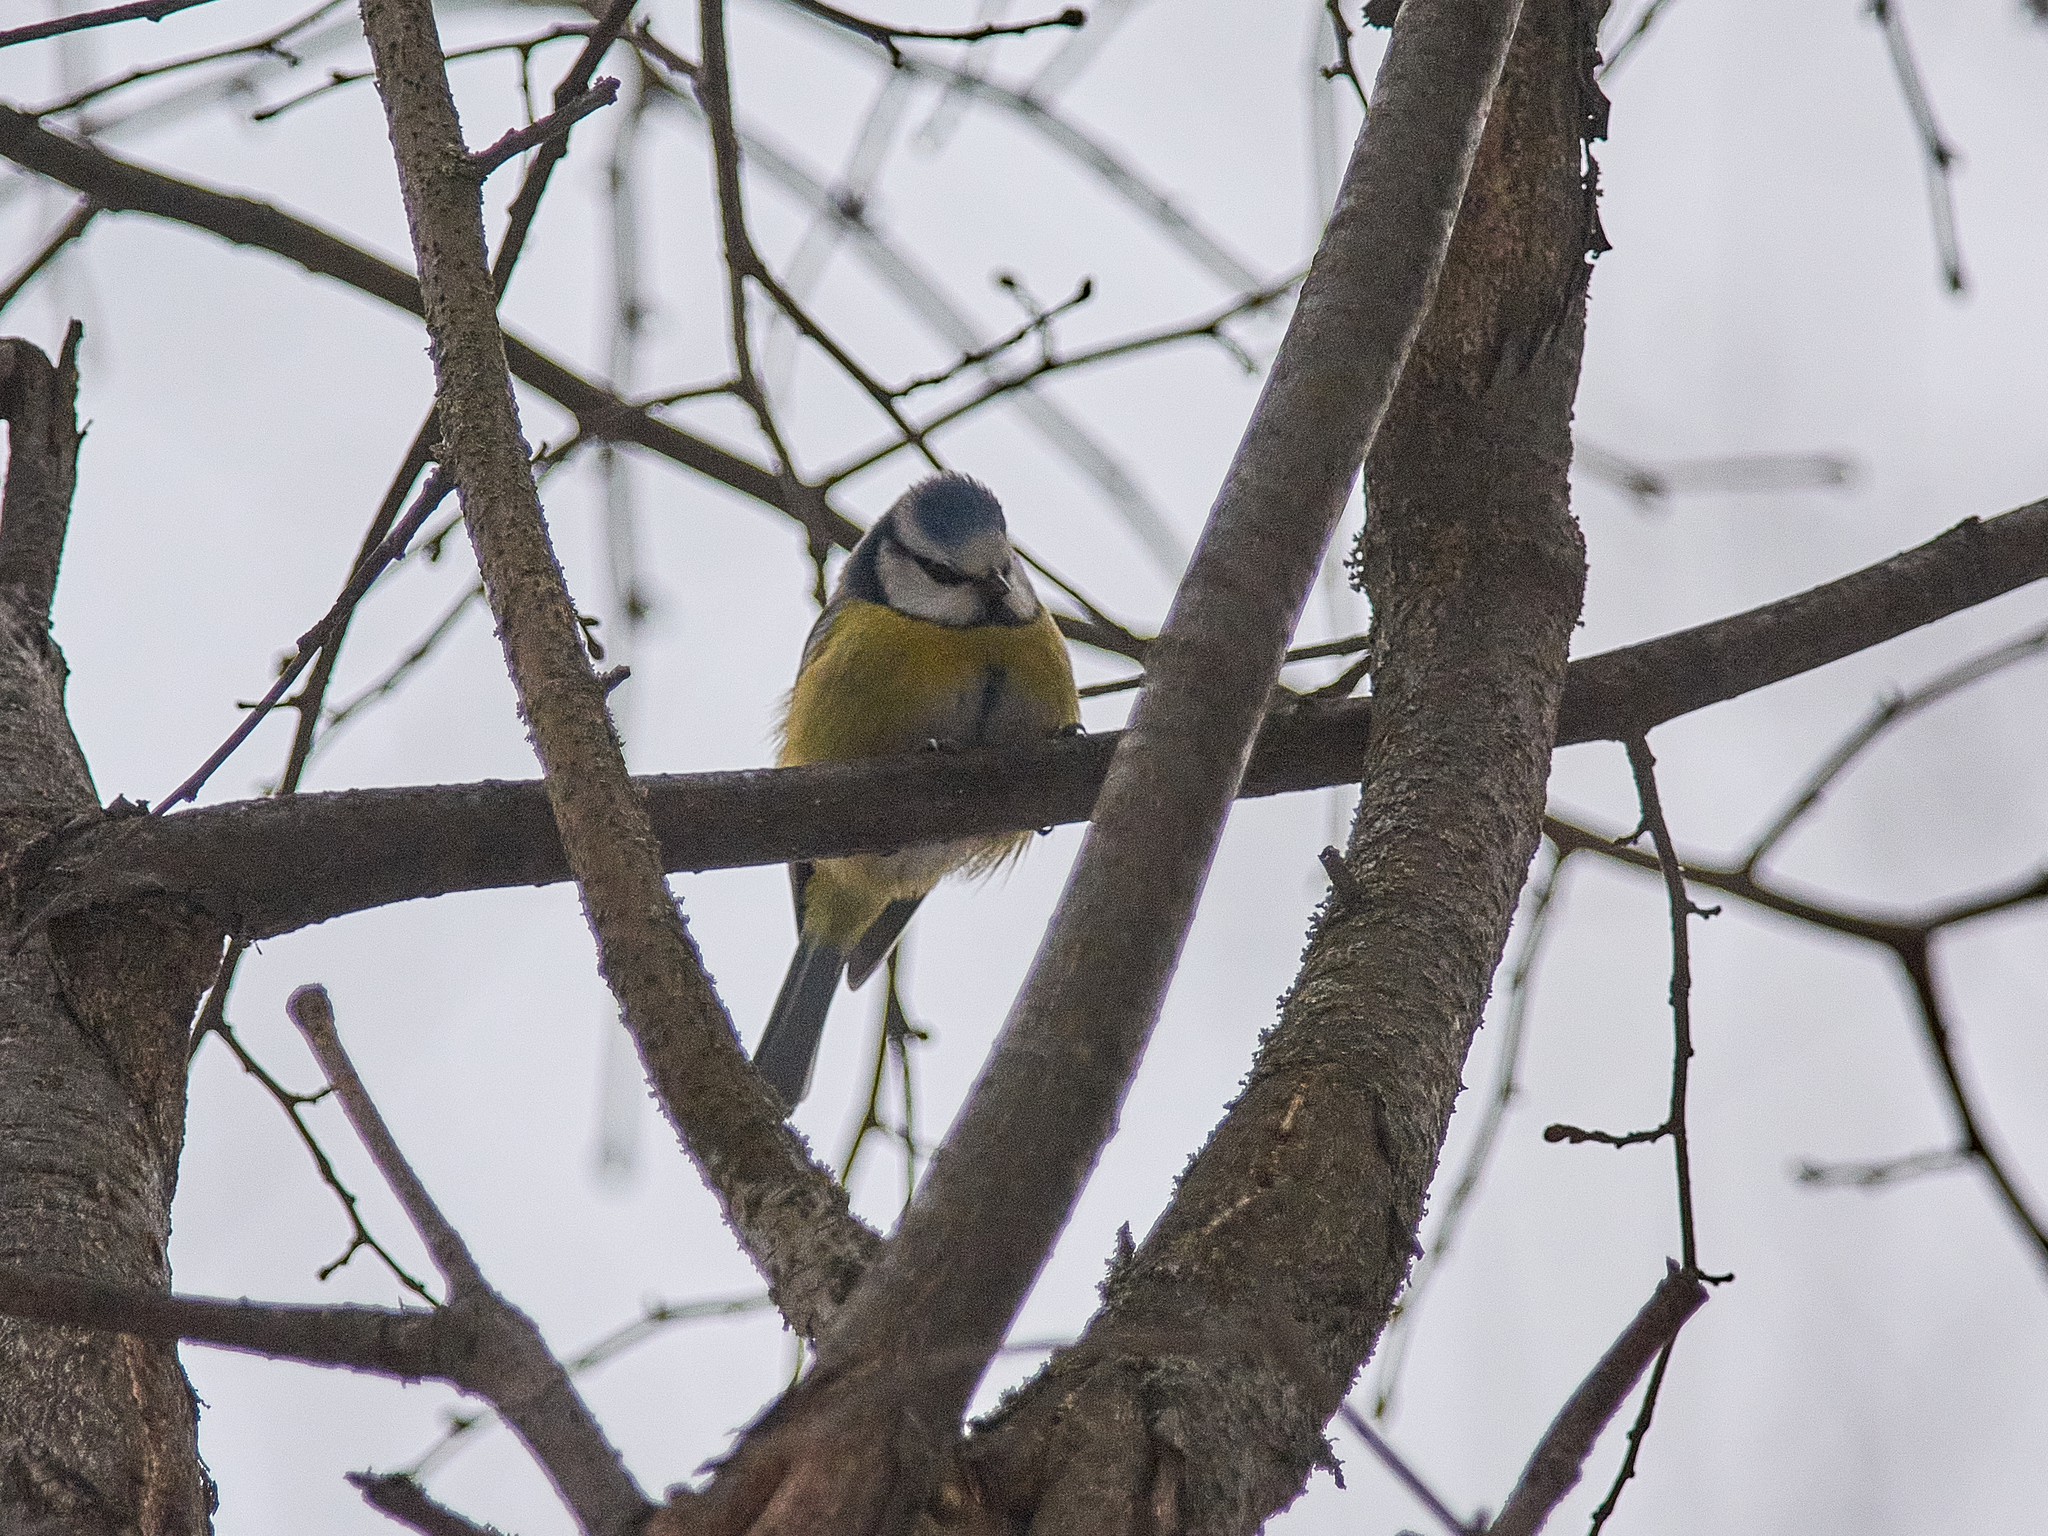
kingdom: Animalia
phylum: Chordata
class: Aves
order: Passeriformes
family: Paridae
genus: Cyanistes
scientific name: Cyanistes caeruleus
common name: Eurasian blue tit
